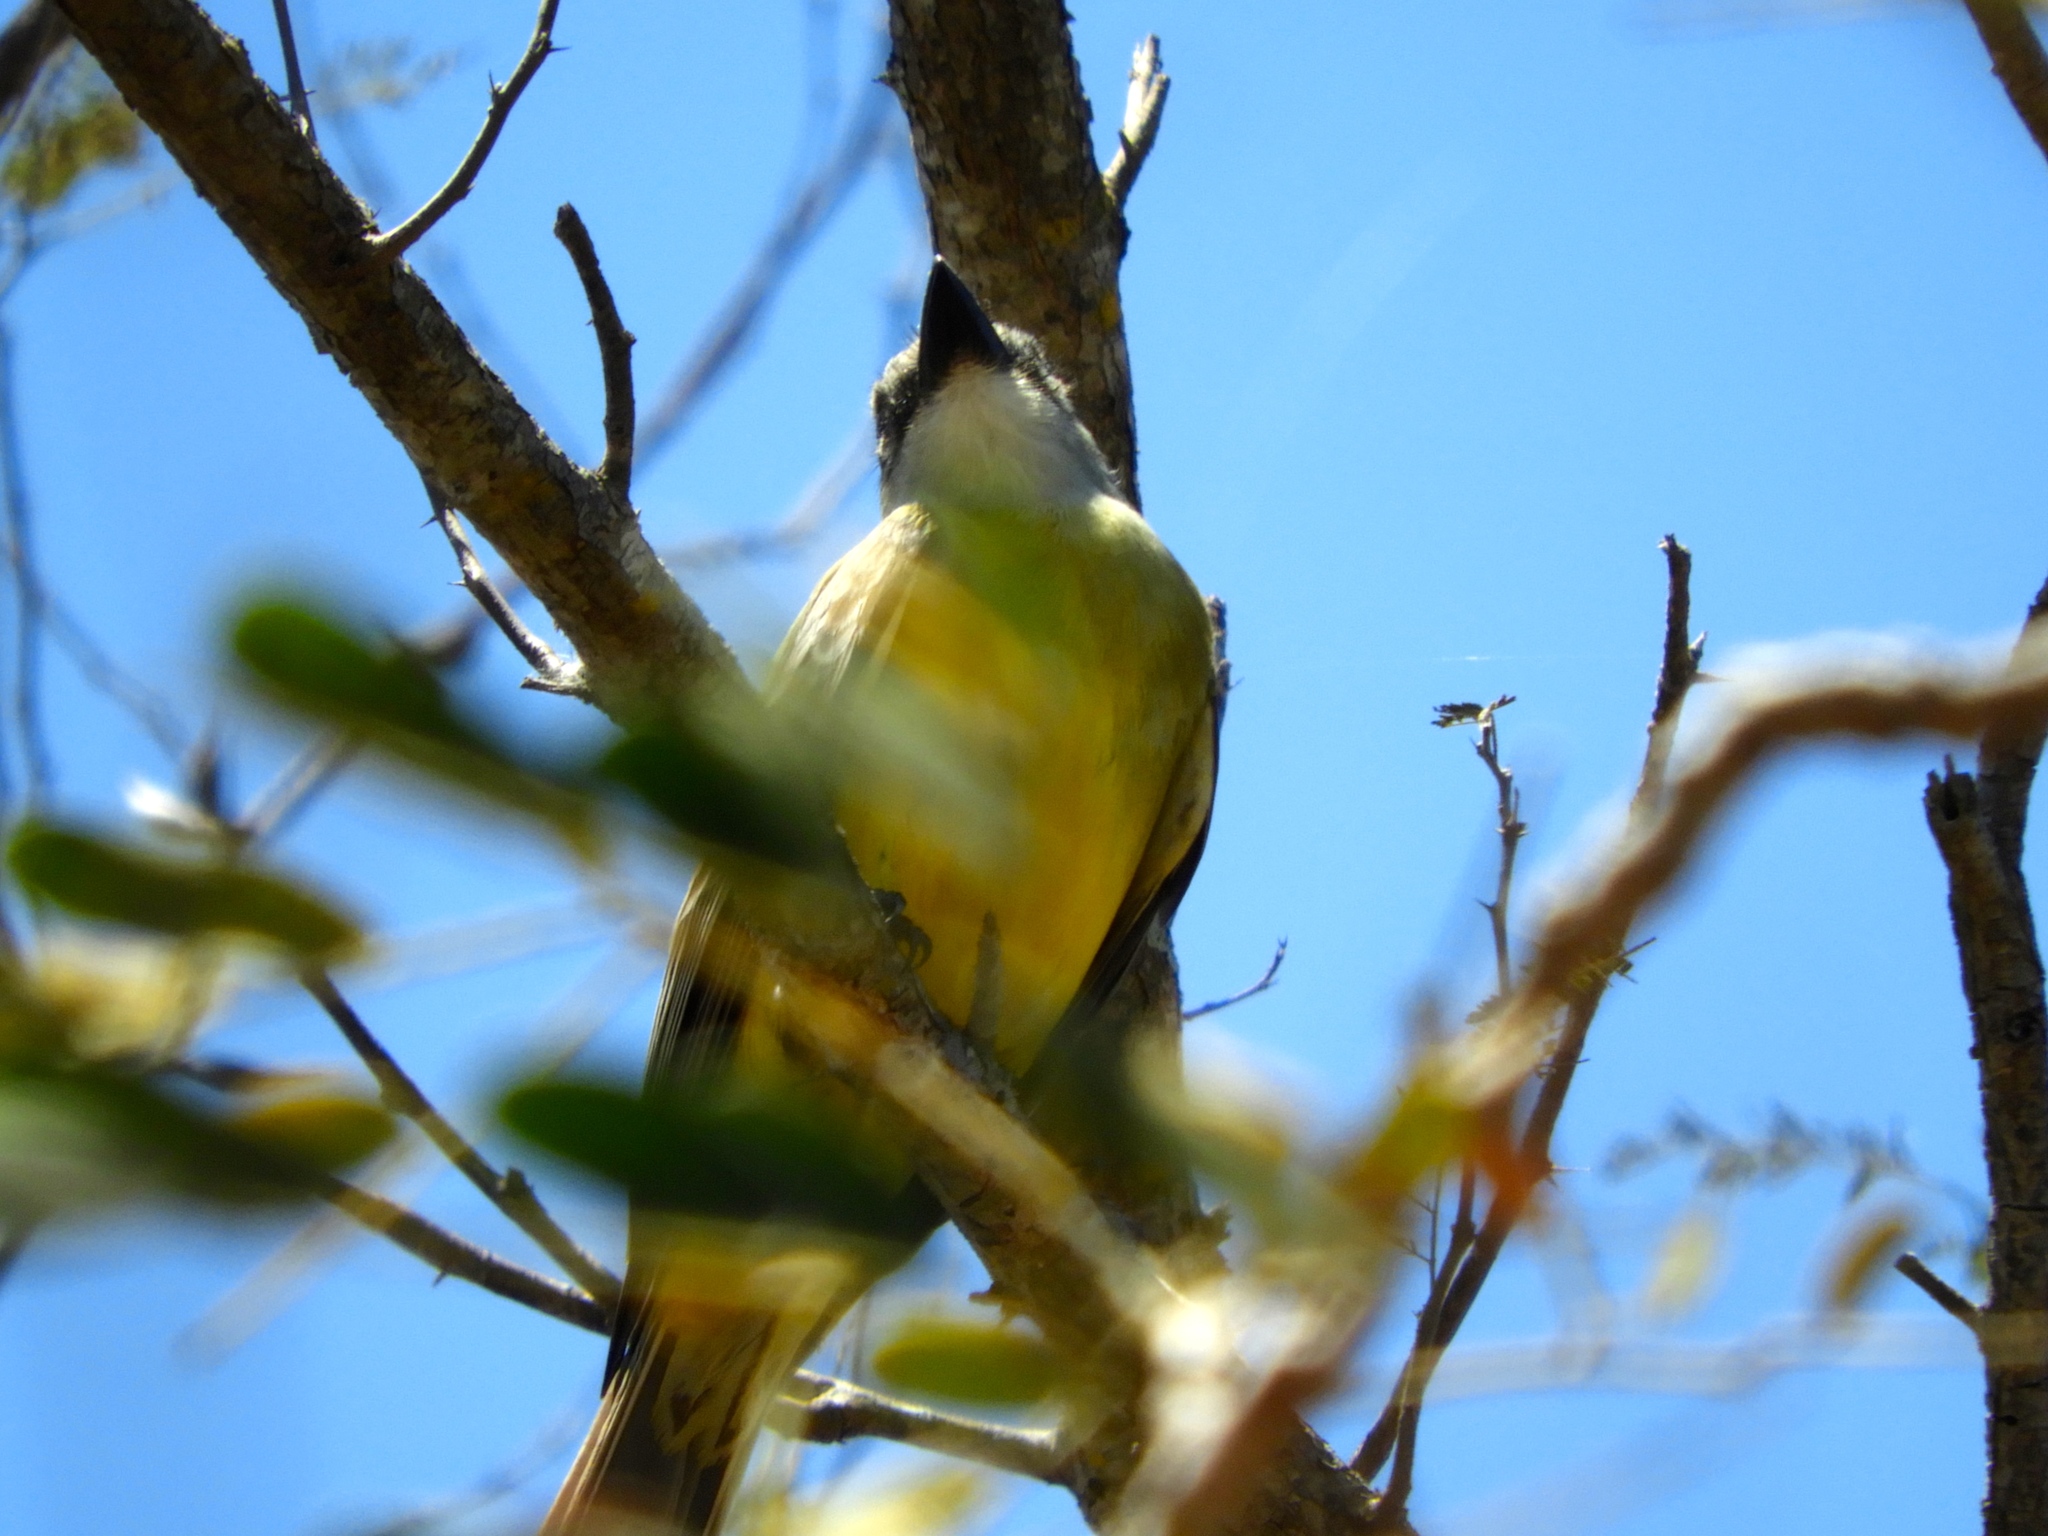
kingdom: Animalia
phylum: Chordata
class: Aves
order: Passeriformes
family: Tyrannidae
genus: Tyrannus
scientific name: Tyrannus melancholicus
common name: Tropical kingbird
